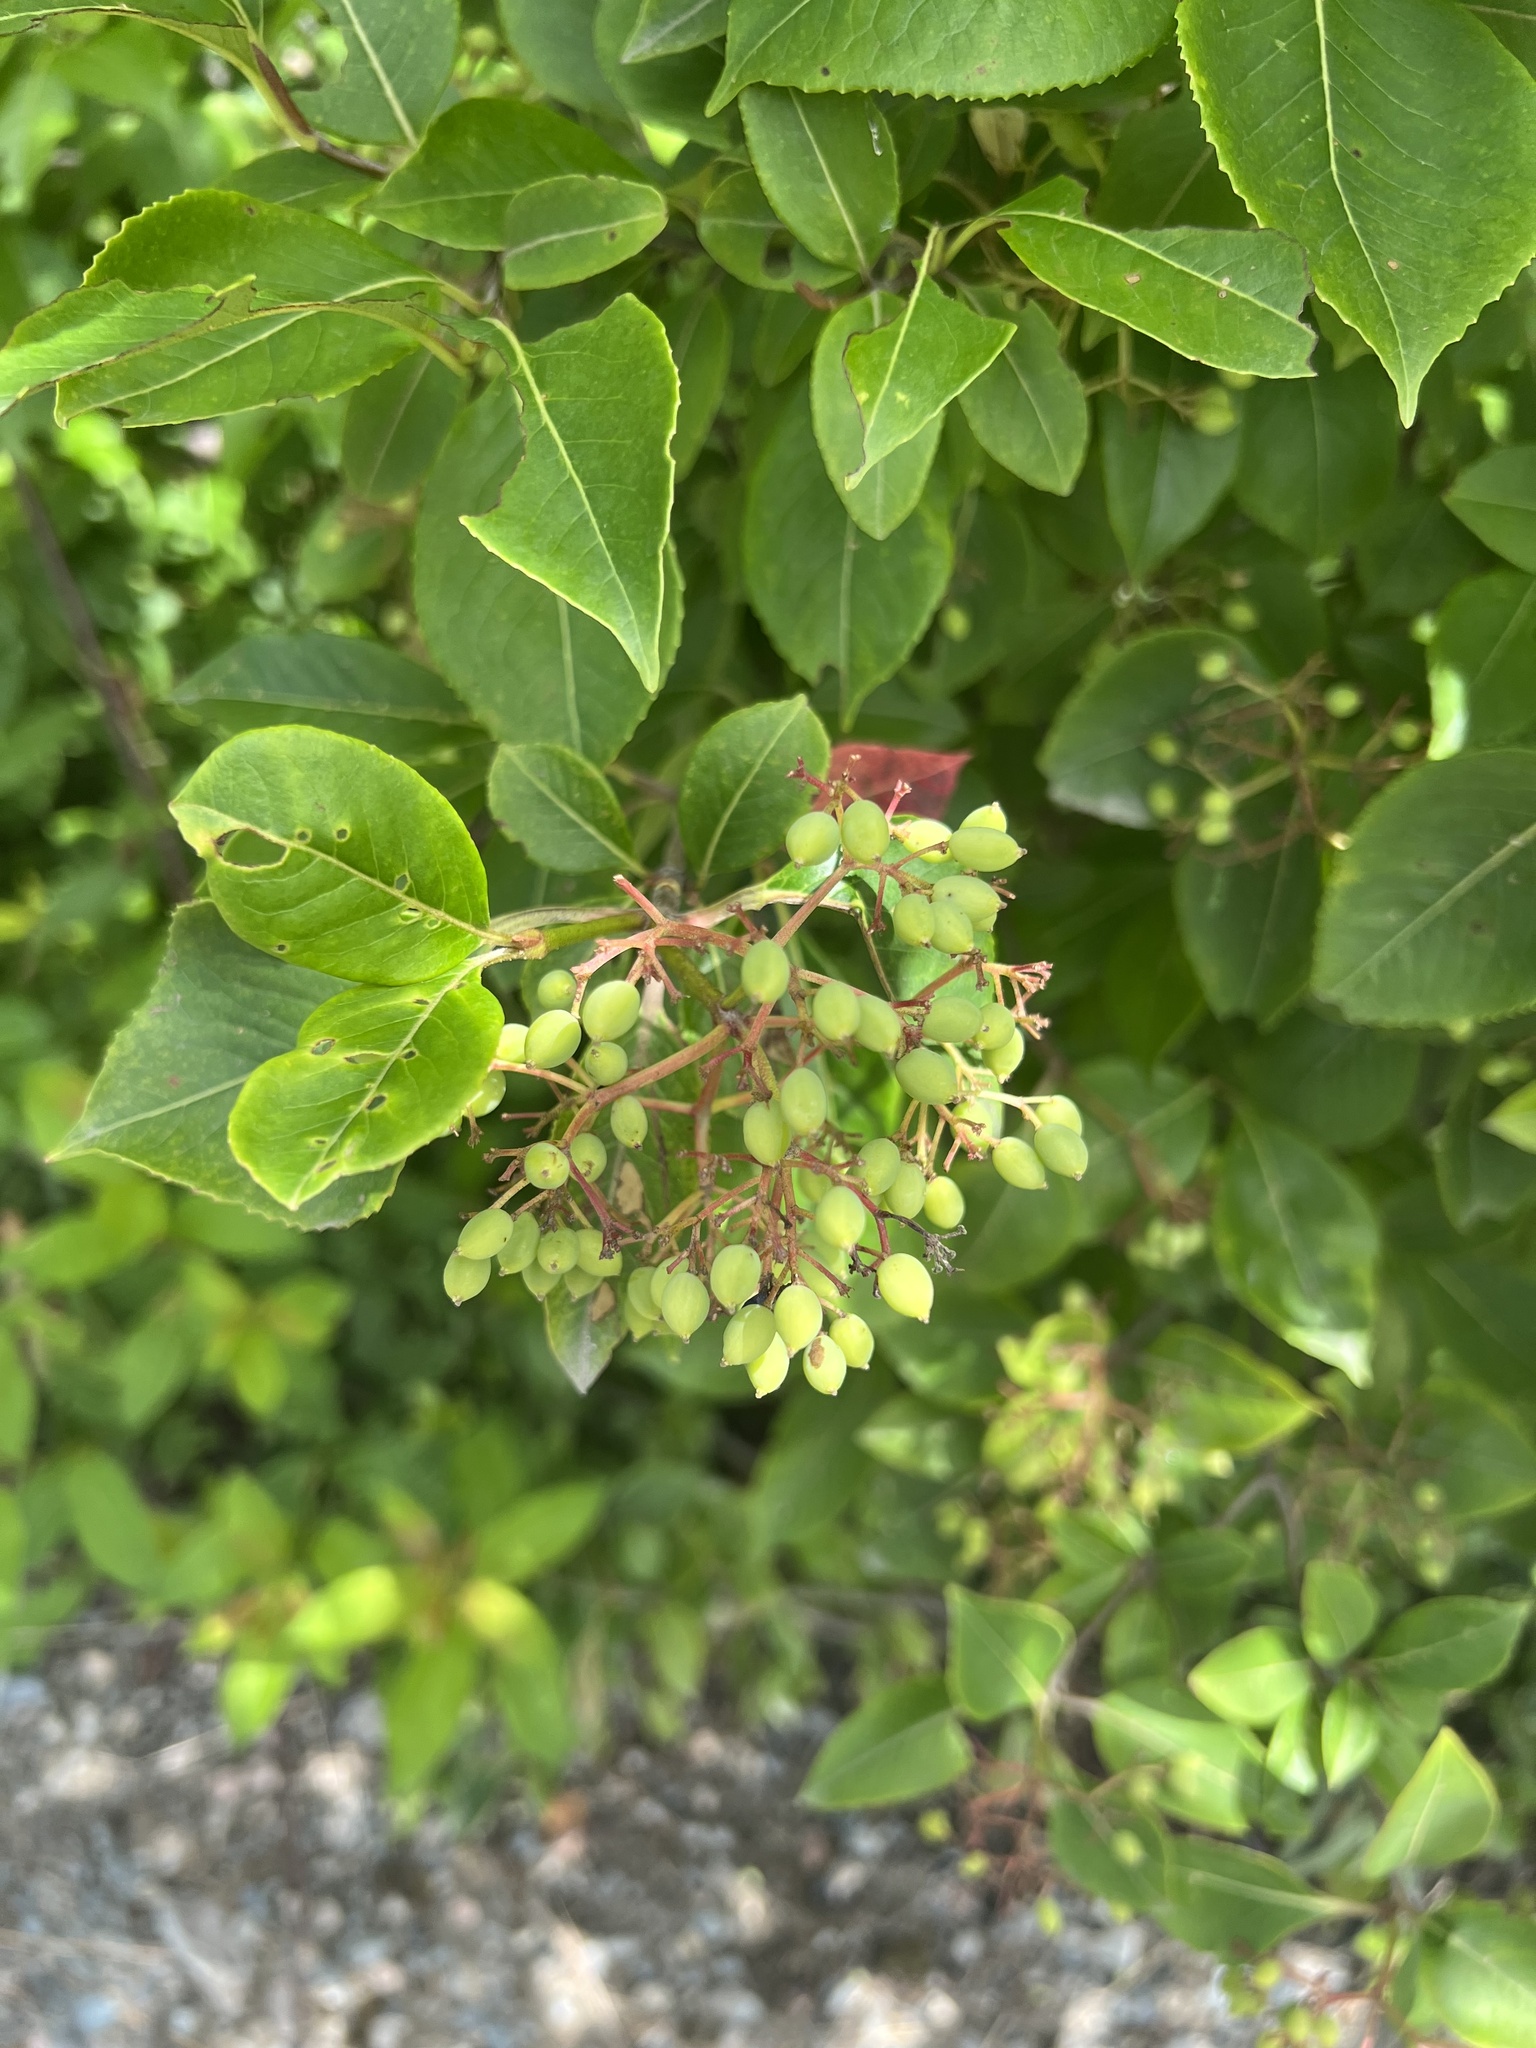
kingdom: Plantae
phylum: Tracheophyta
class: Magnoliopsida
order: Dipsacales
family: Viburnaceae
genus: Viburnum
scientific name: Viburnum cassinoides
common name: Swamp haw
